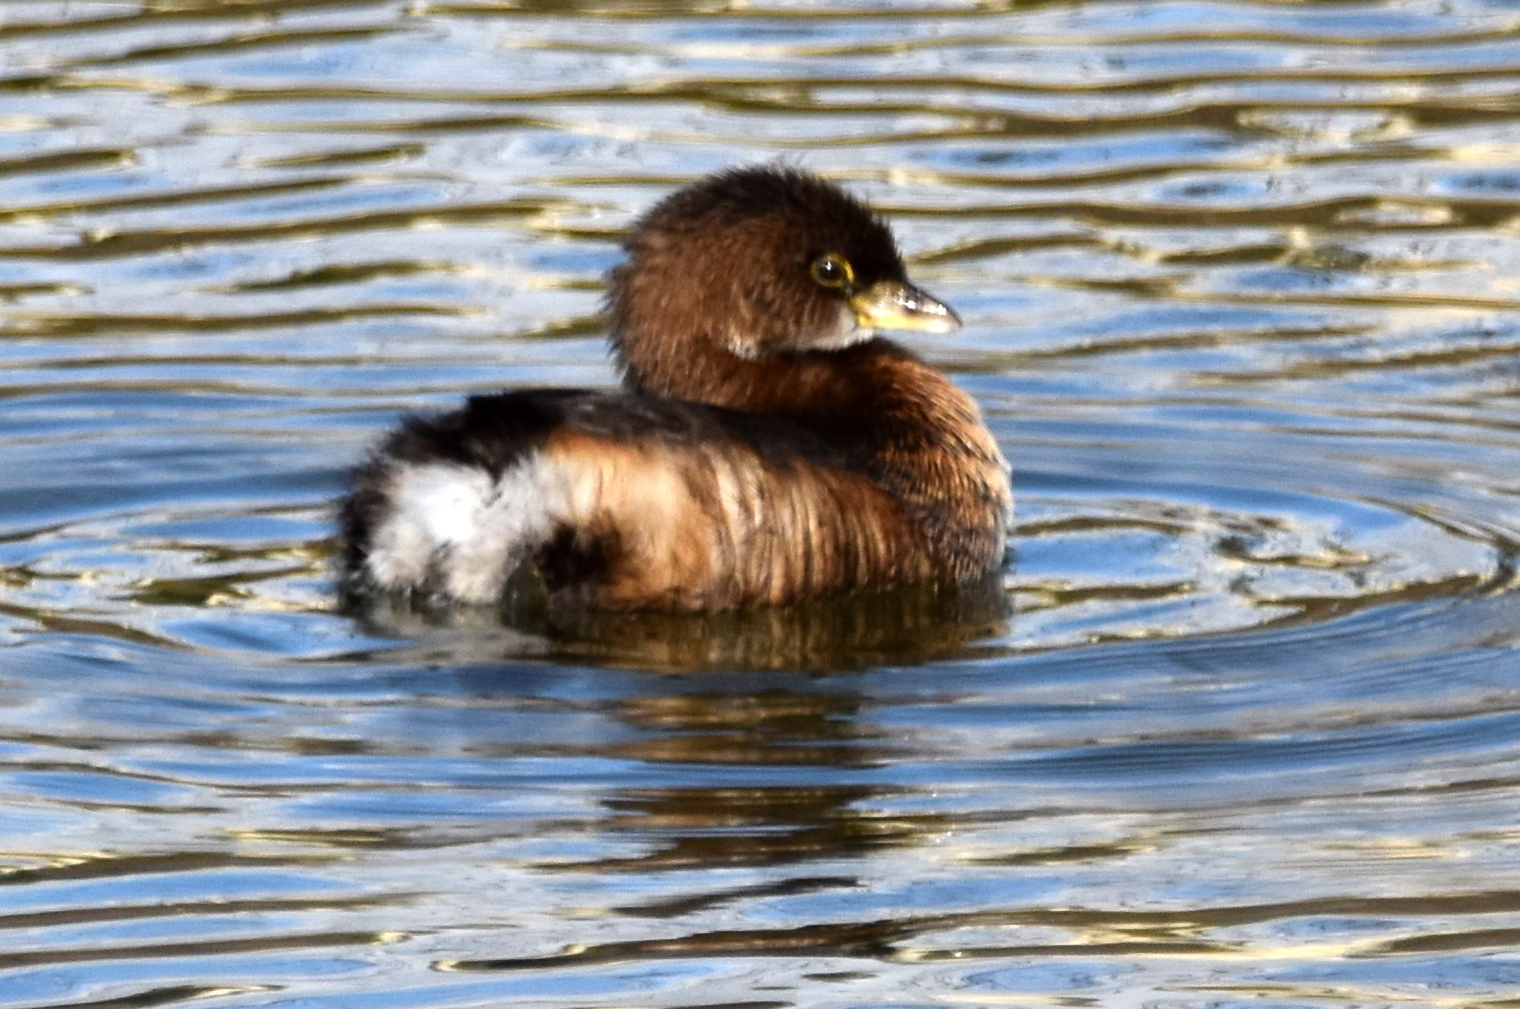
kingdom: Animalia
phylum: Chordata
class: Aves
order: Podicipediformes
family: Podicipedidae
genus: Podilymbus
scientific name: Podilymbus podiceps
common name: Pied-billed grebe
